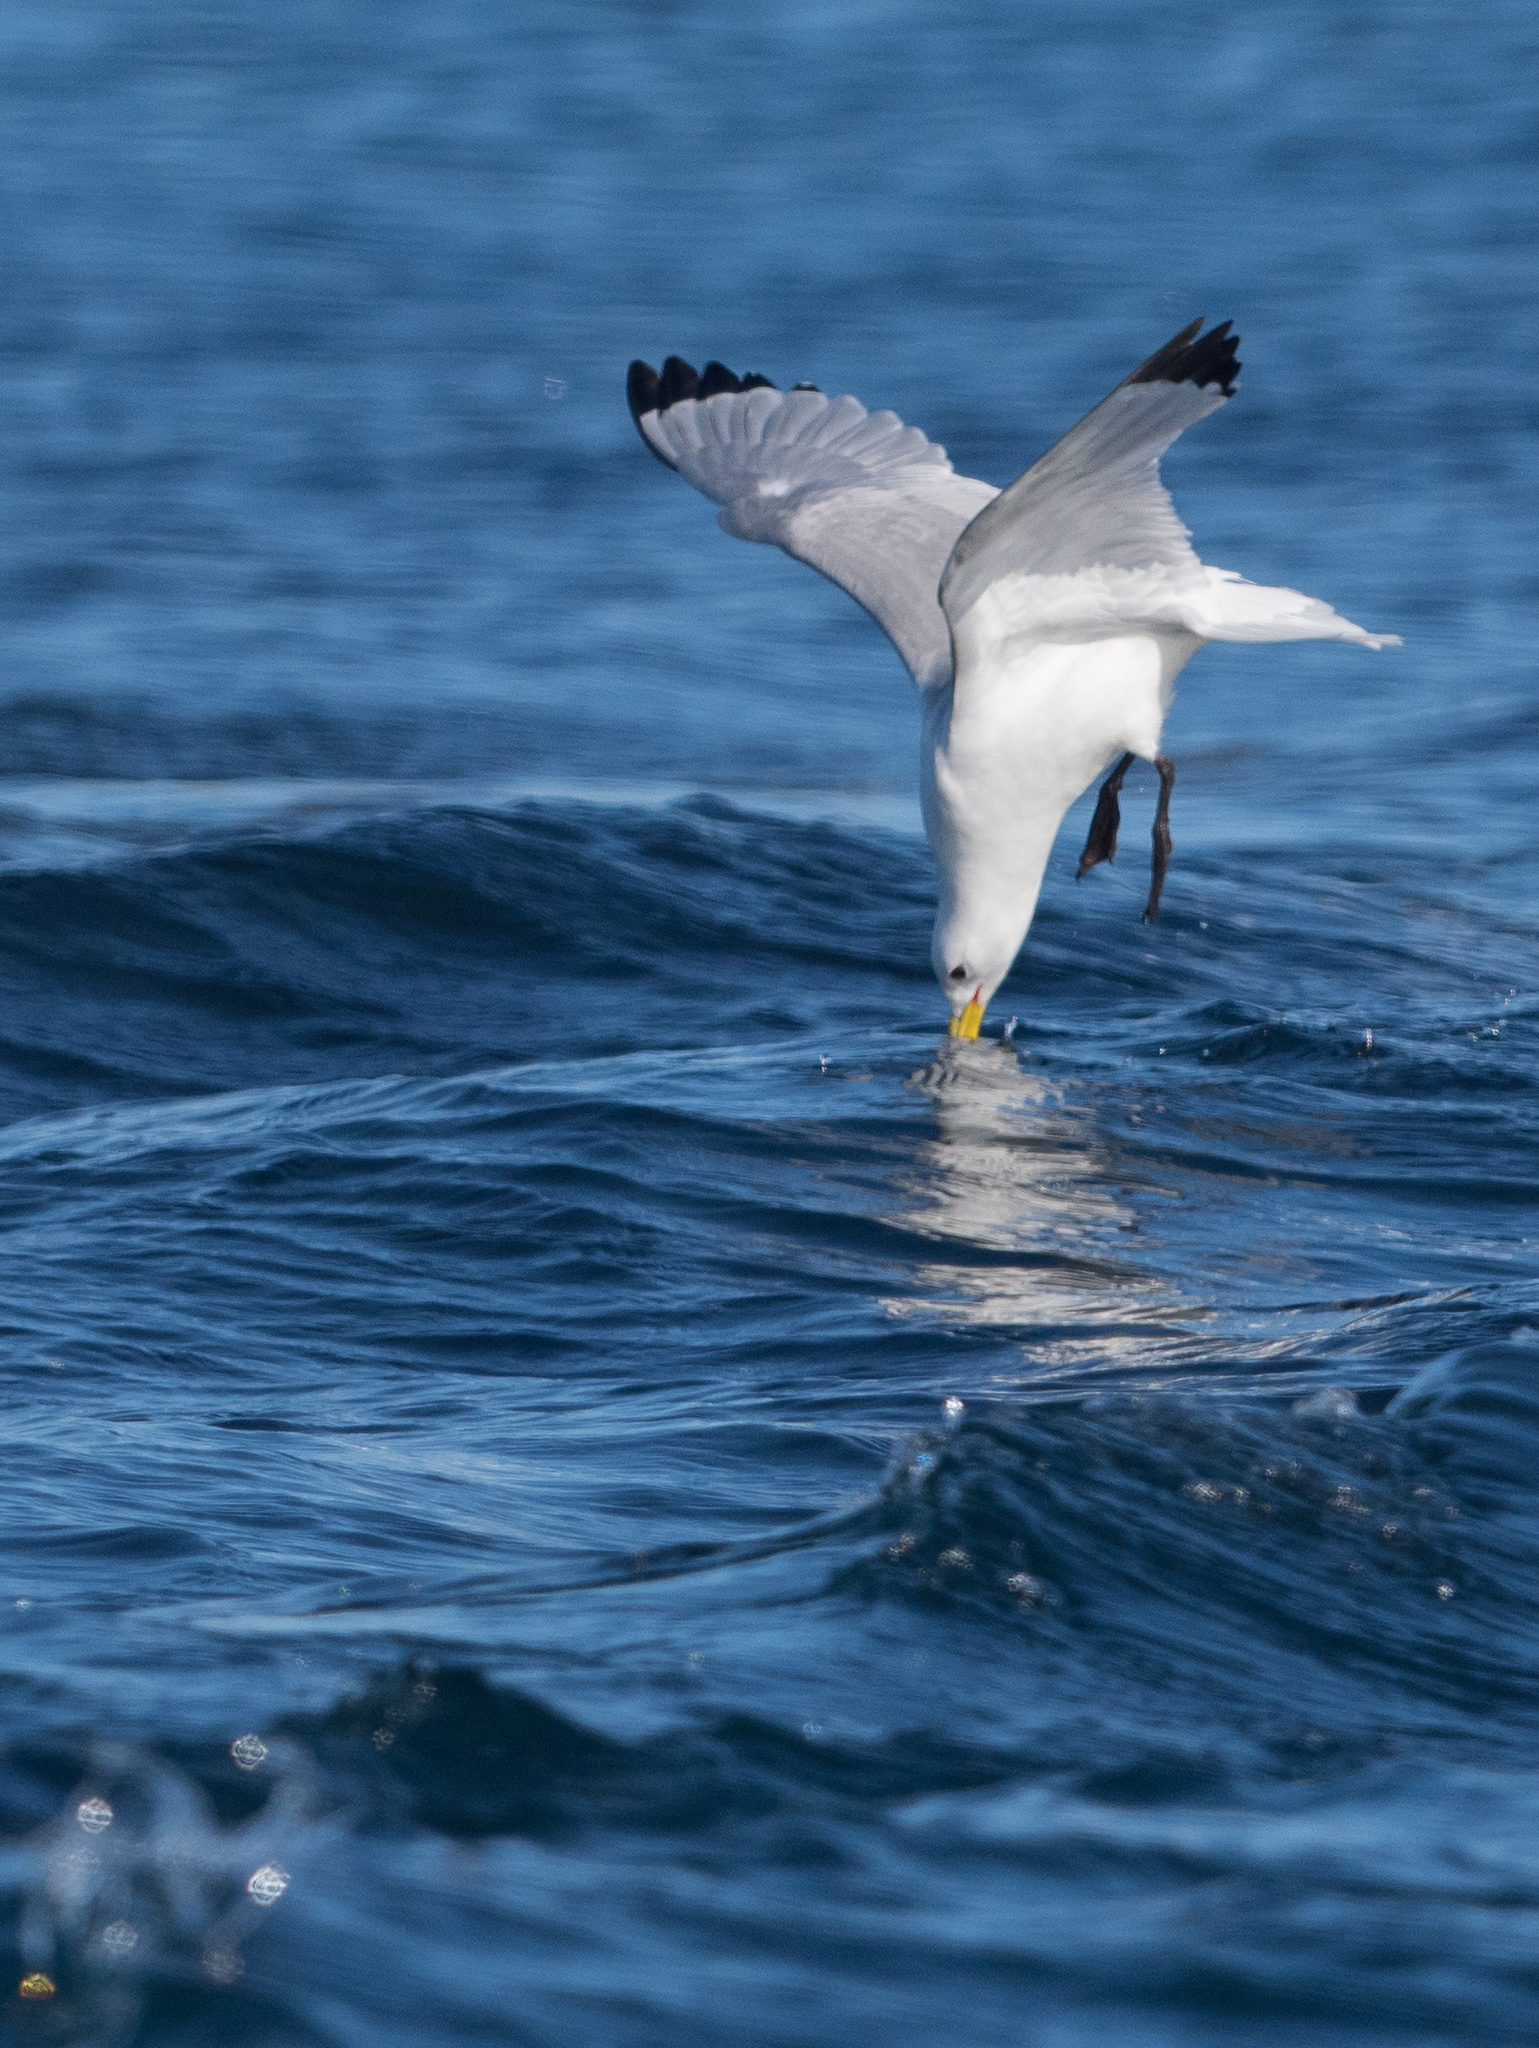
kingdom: Animalia
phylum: Chordata
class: Aves
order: Charadriiformes
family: Laridae
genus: Rissa
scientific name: Rissa tridactyla
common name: Black-legged kittiwake
